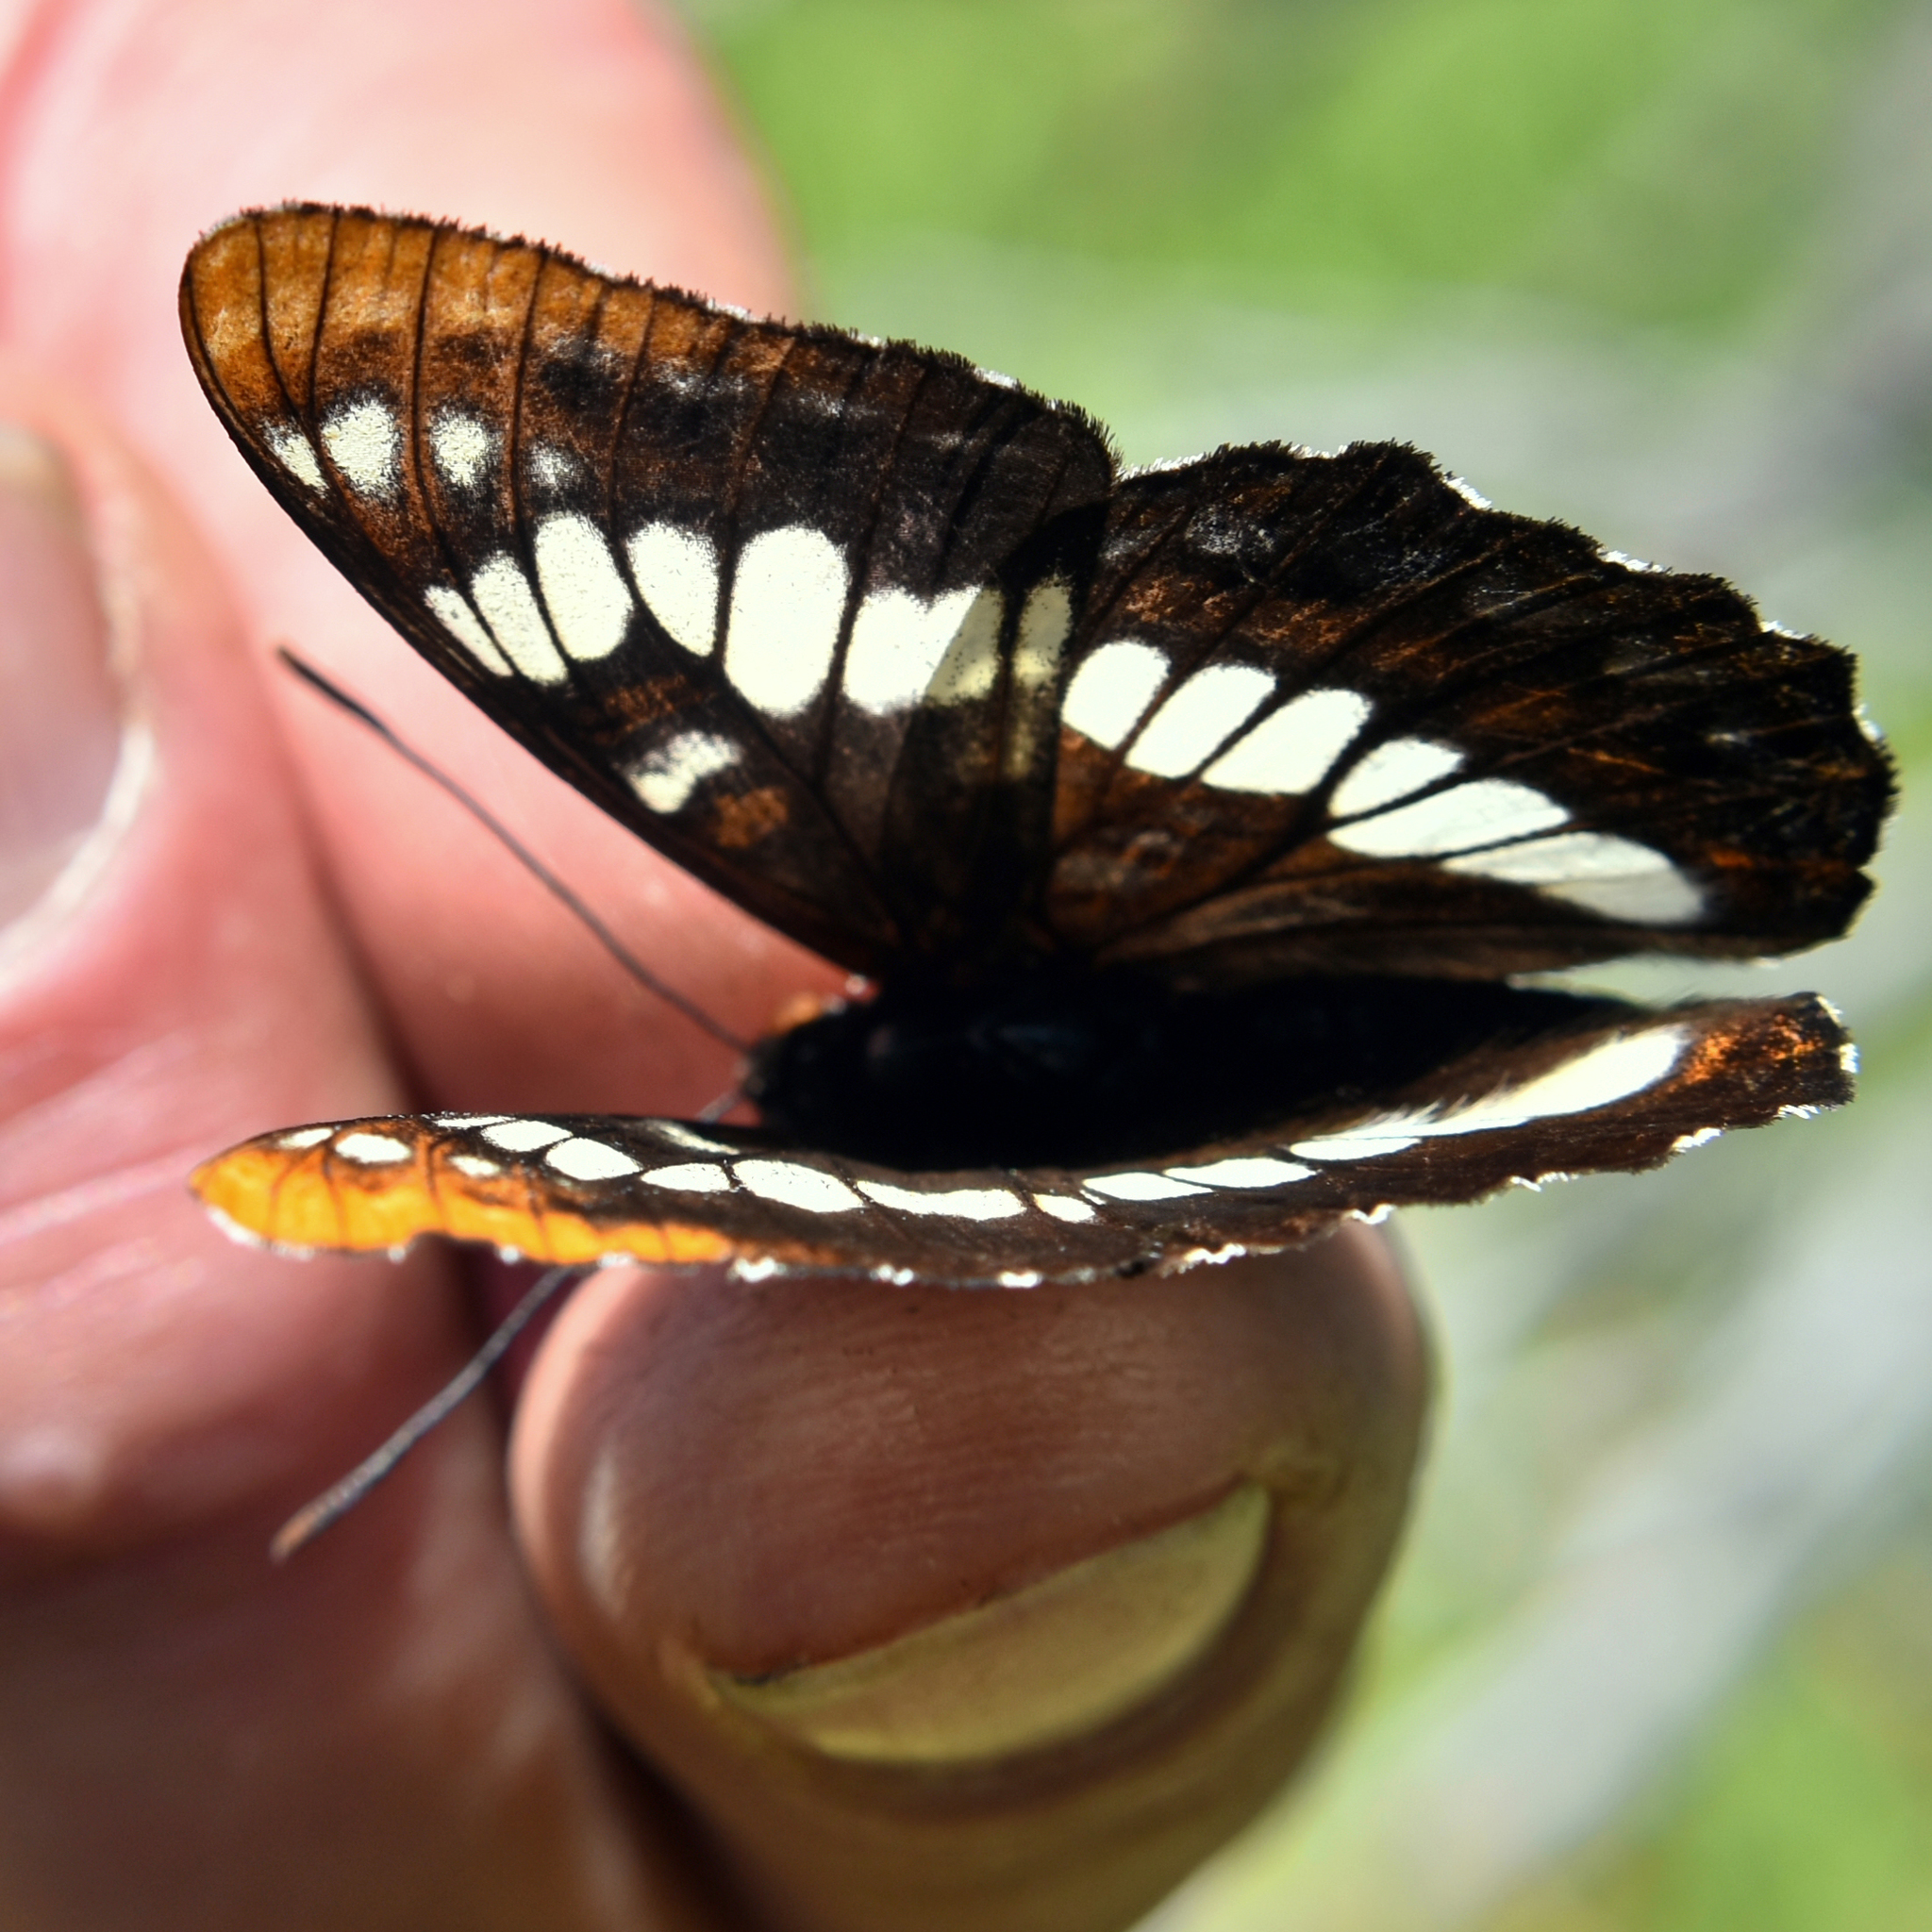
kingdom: Animalia
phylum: Arthropoda
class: Insecta
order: Lepidoptera
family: Nymphalidae
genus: Limenitis
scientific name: Limenitis lorquini
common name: Lorquin's admiral
